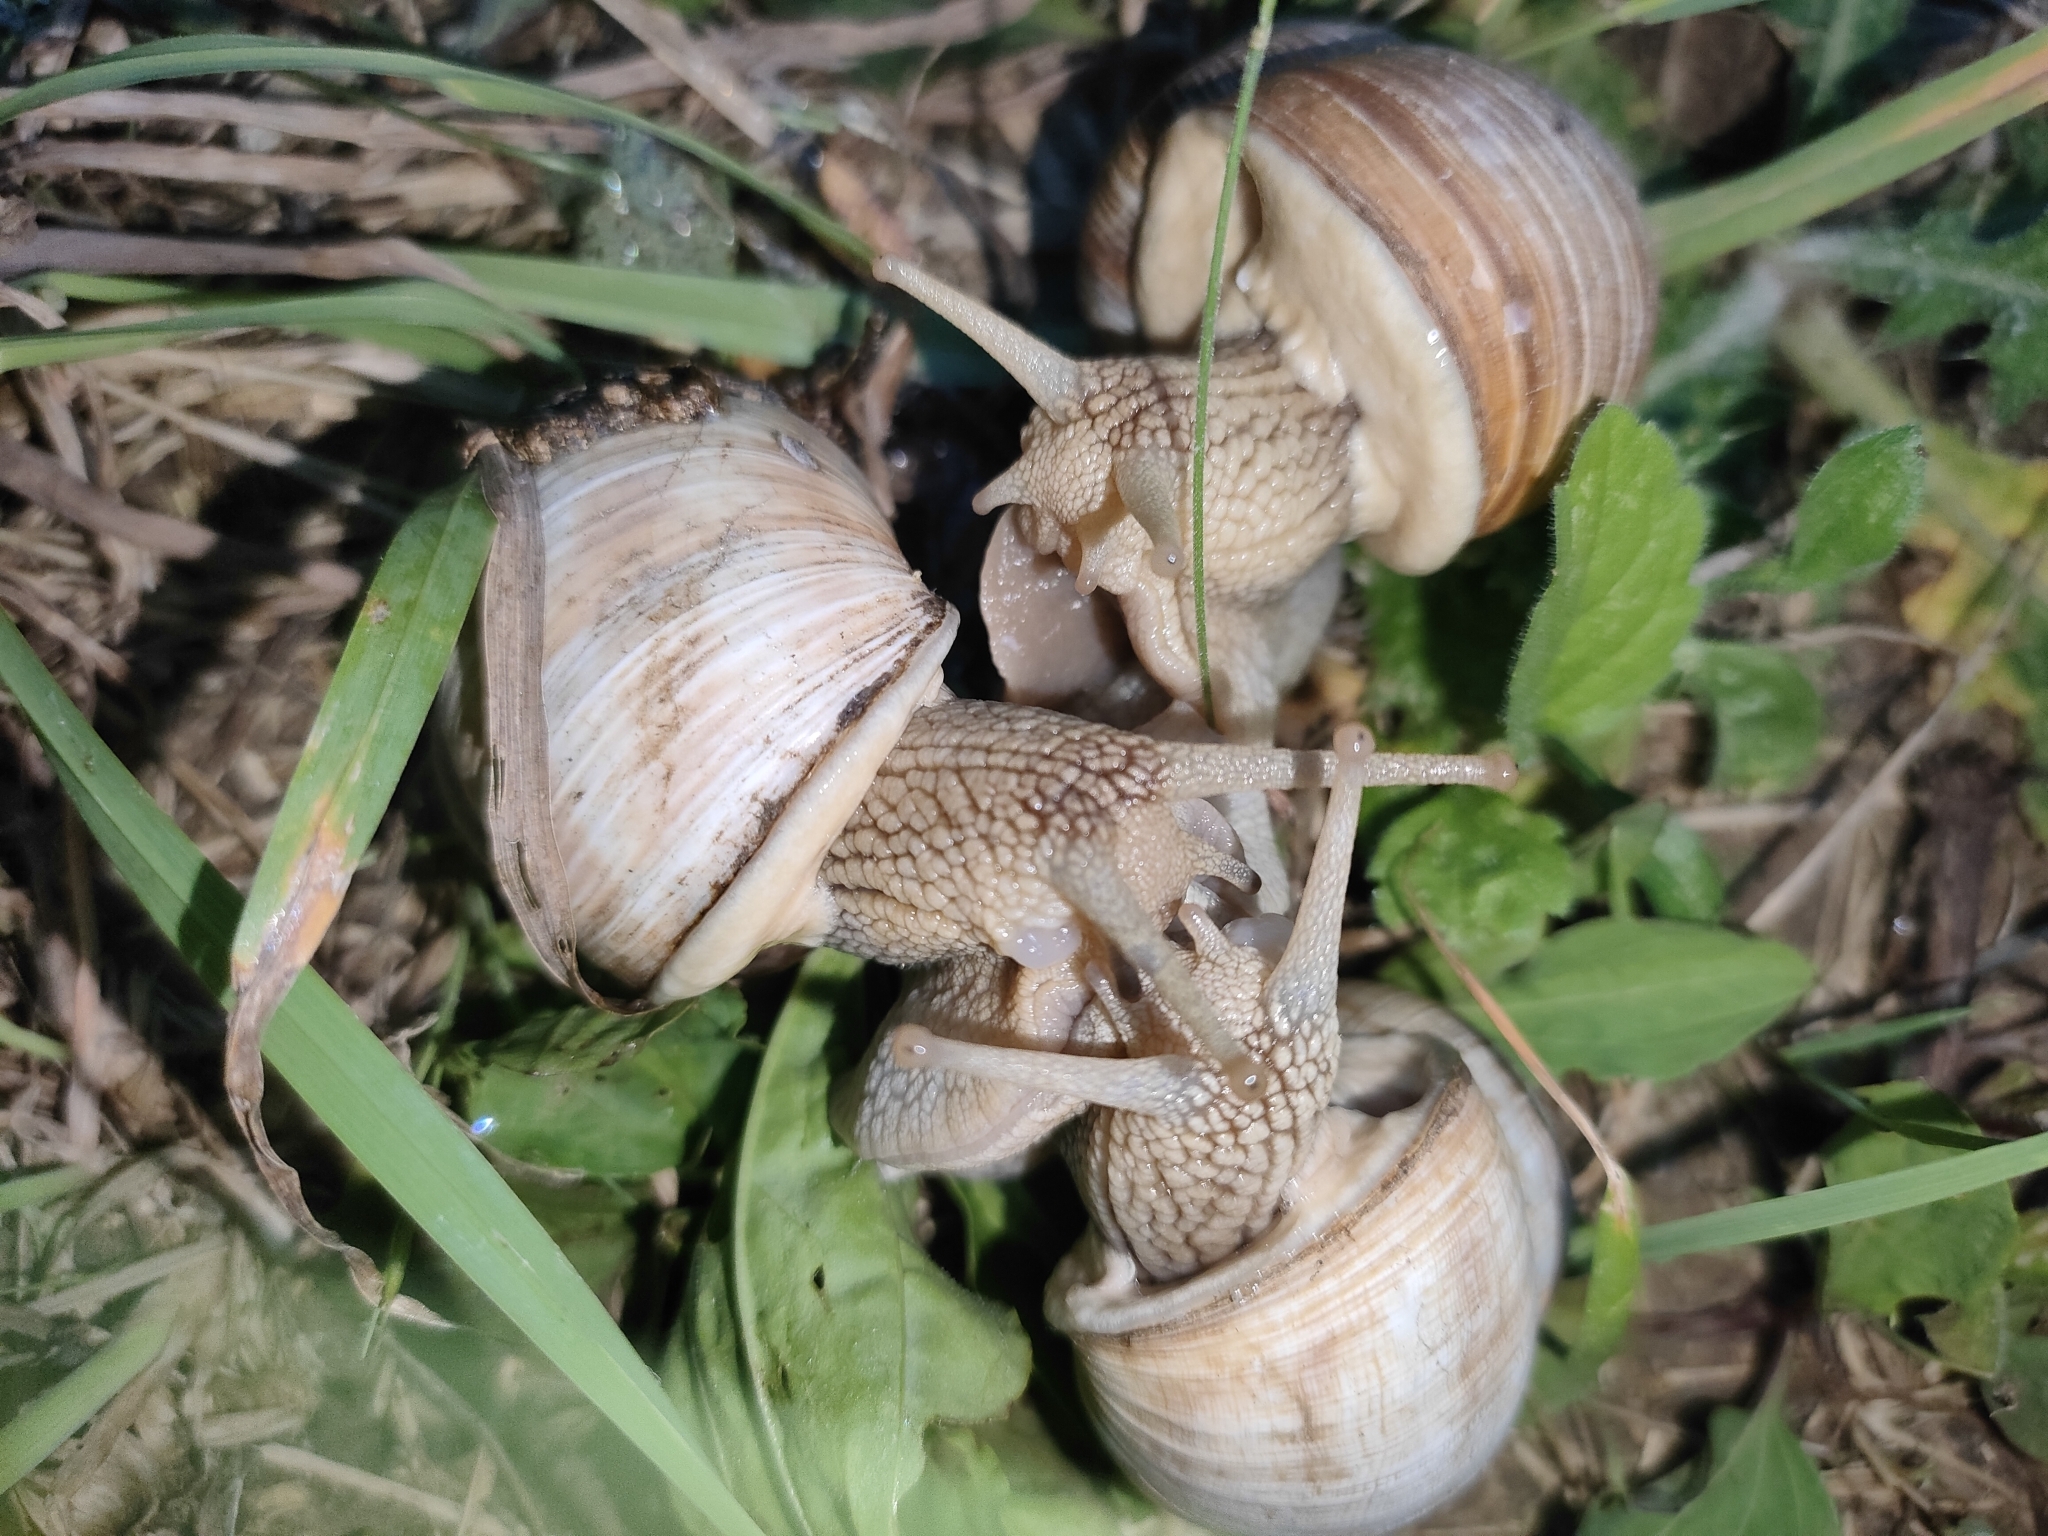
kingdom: Animalia
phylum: Mollusca
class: Gastropoda
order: Stylommatophora
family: Helicidae
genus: Helix
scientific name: Helix pomatia
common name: Roman snail
